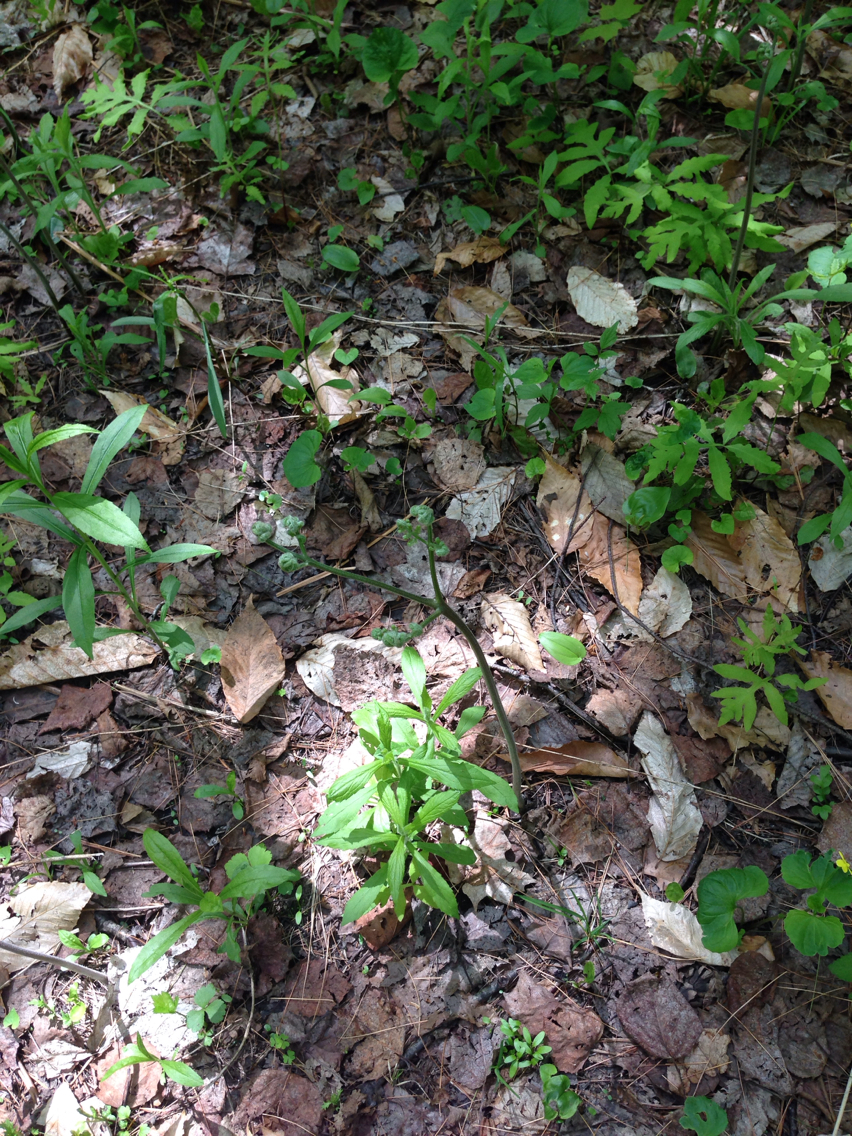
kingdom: Plantae
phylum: Tracheophyta
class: Polypodiopsida
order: Polypodiales
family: Dennstaedtiaceae
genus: Pteridium
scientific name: Pteridium aquilinum
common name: Bracken
